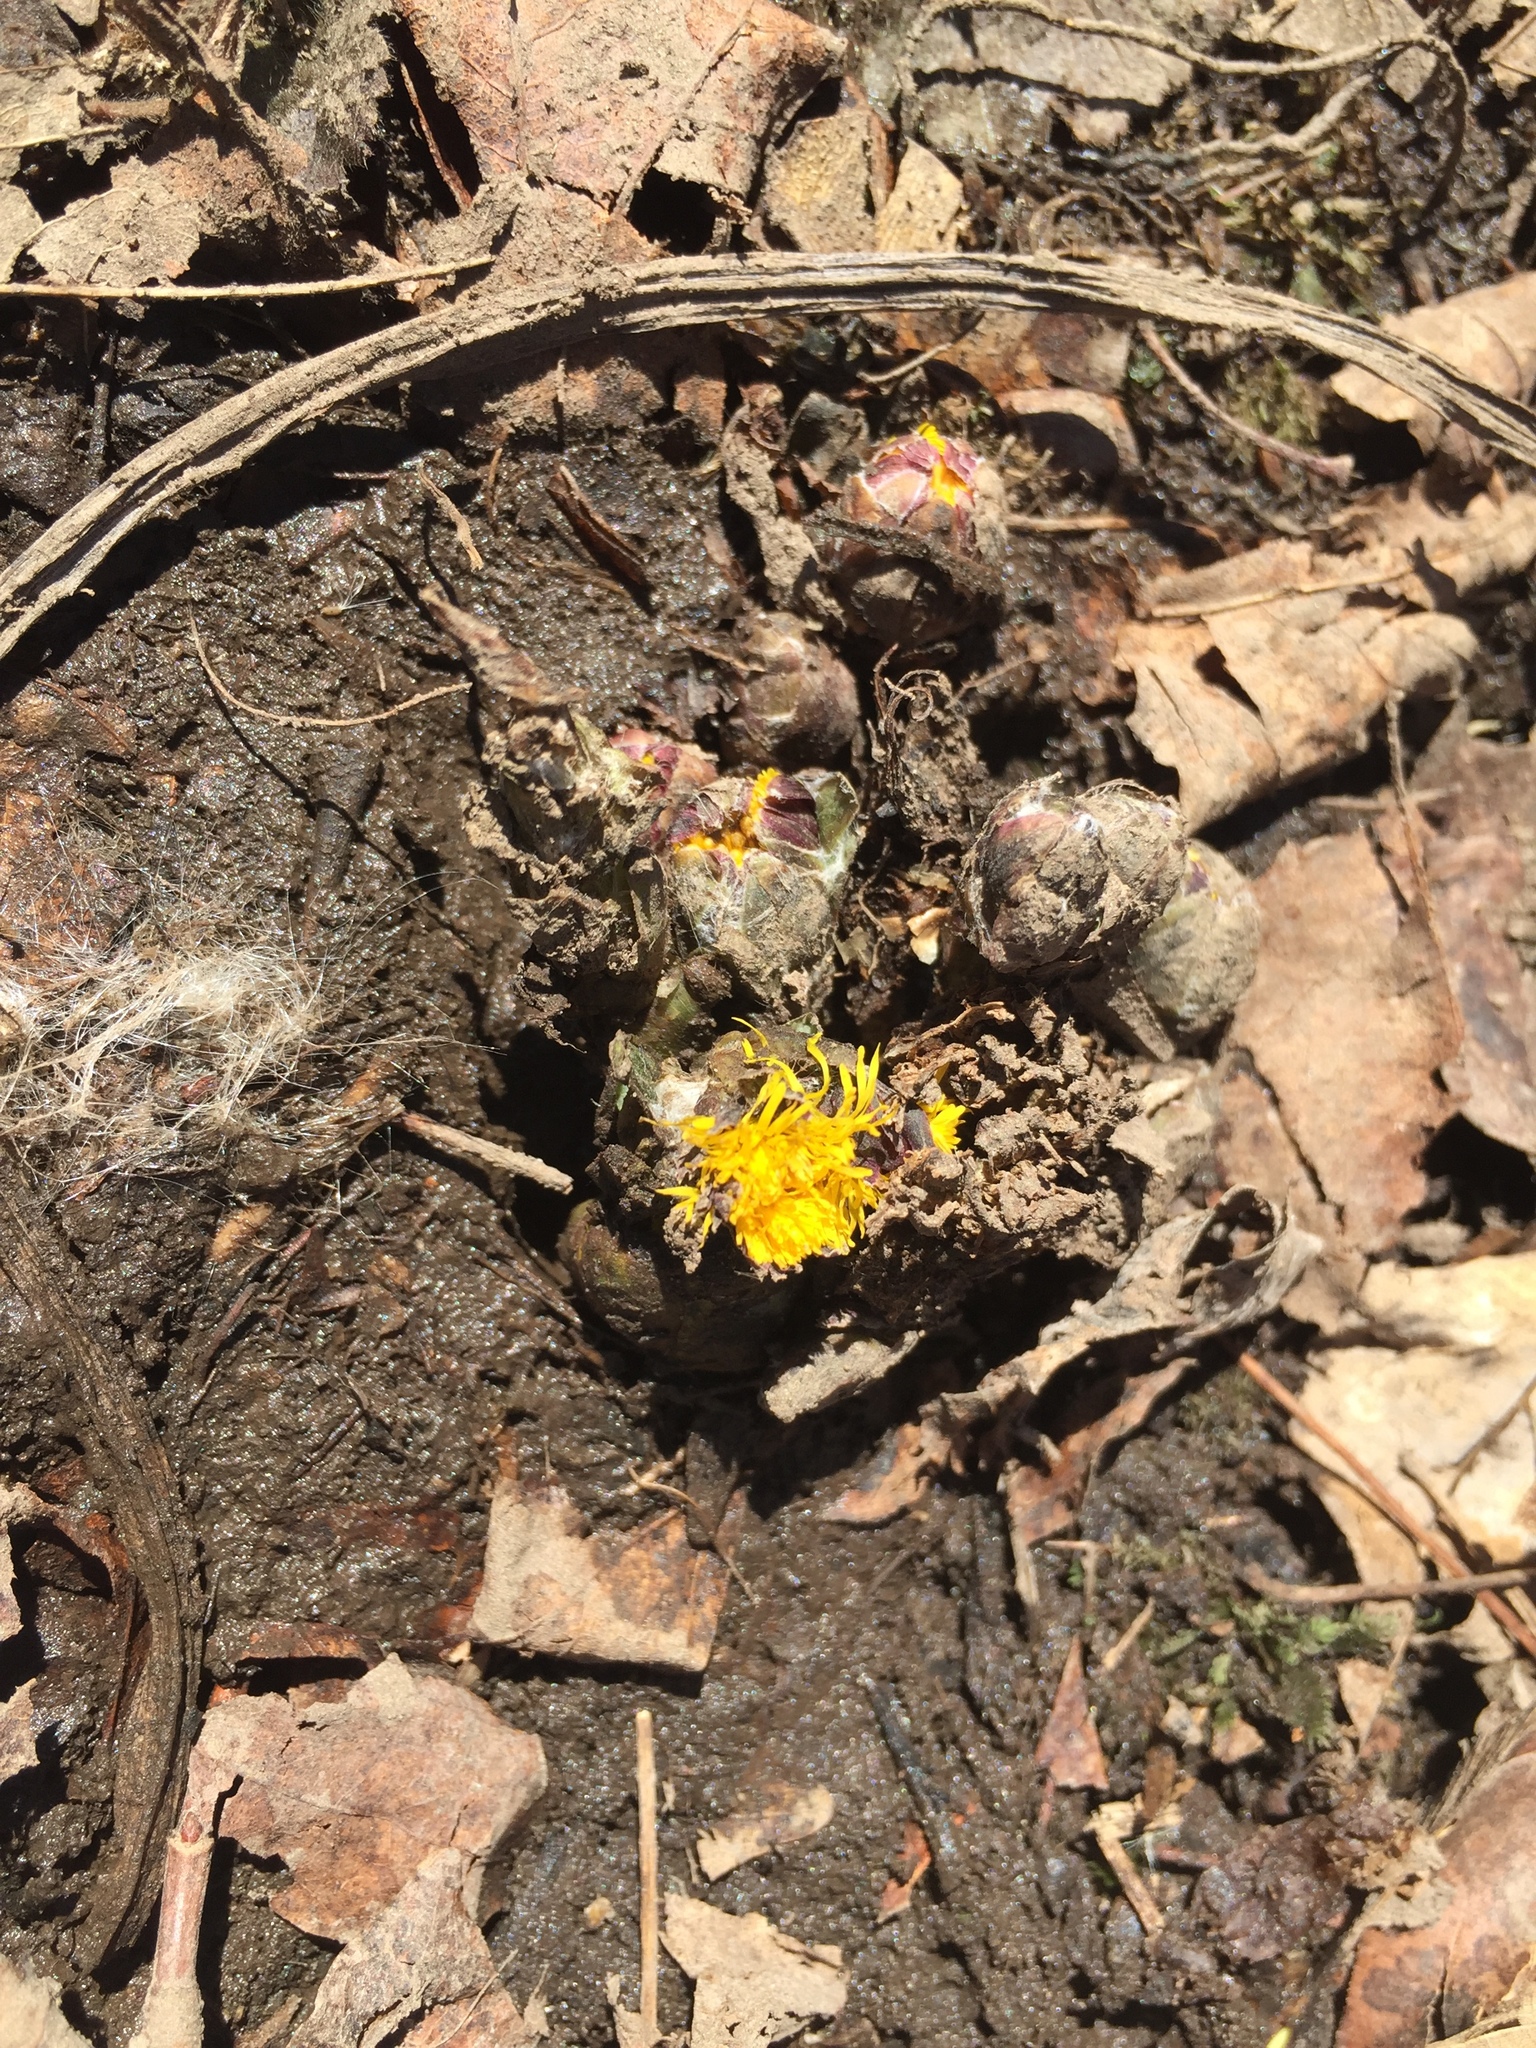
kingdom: Plantae
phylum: Tracheophyta
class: Magnoliopsida
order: Asterales
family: Asteraceae
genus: Tussilago
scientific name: Tussilago farfara
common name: Coltsfoot
